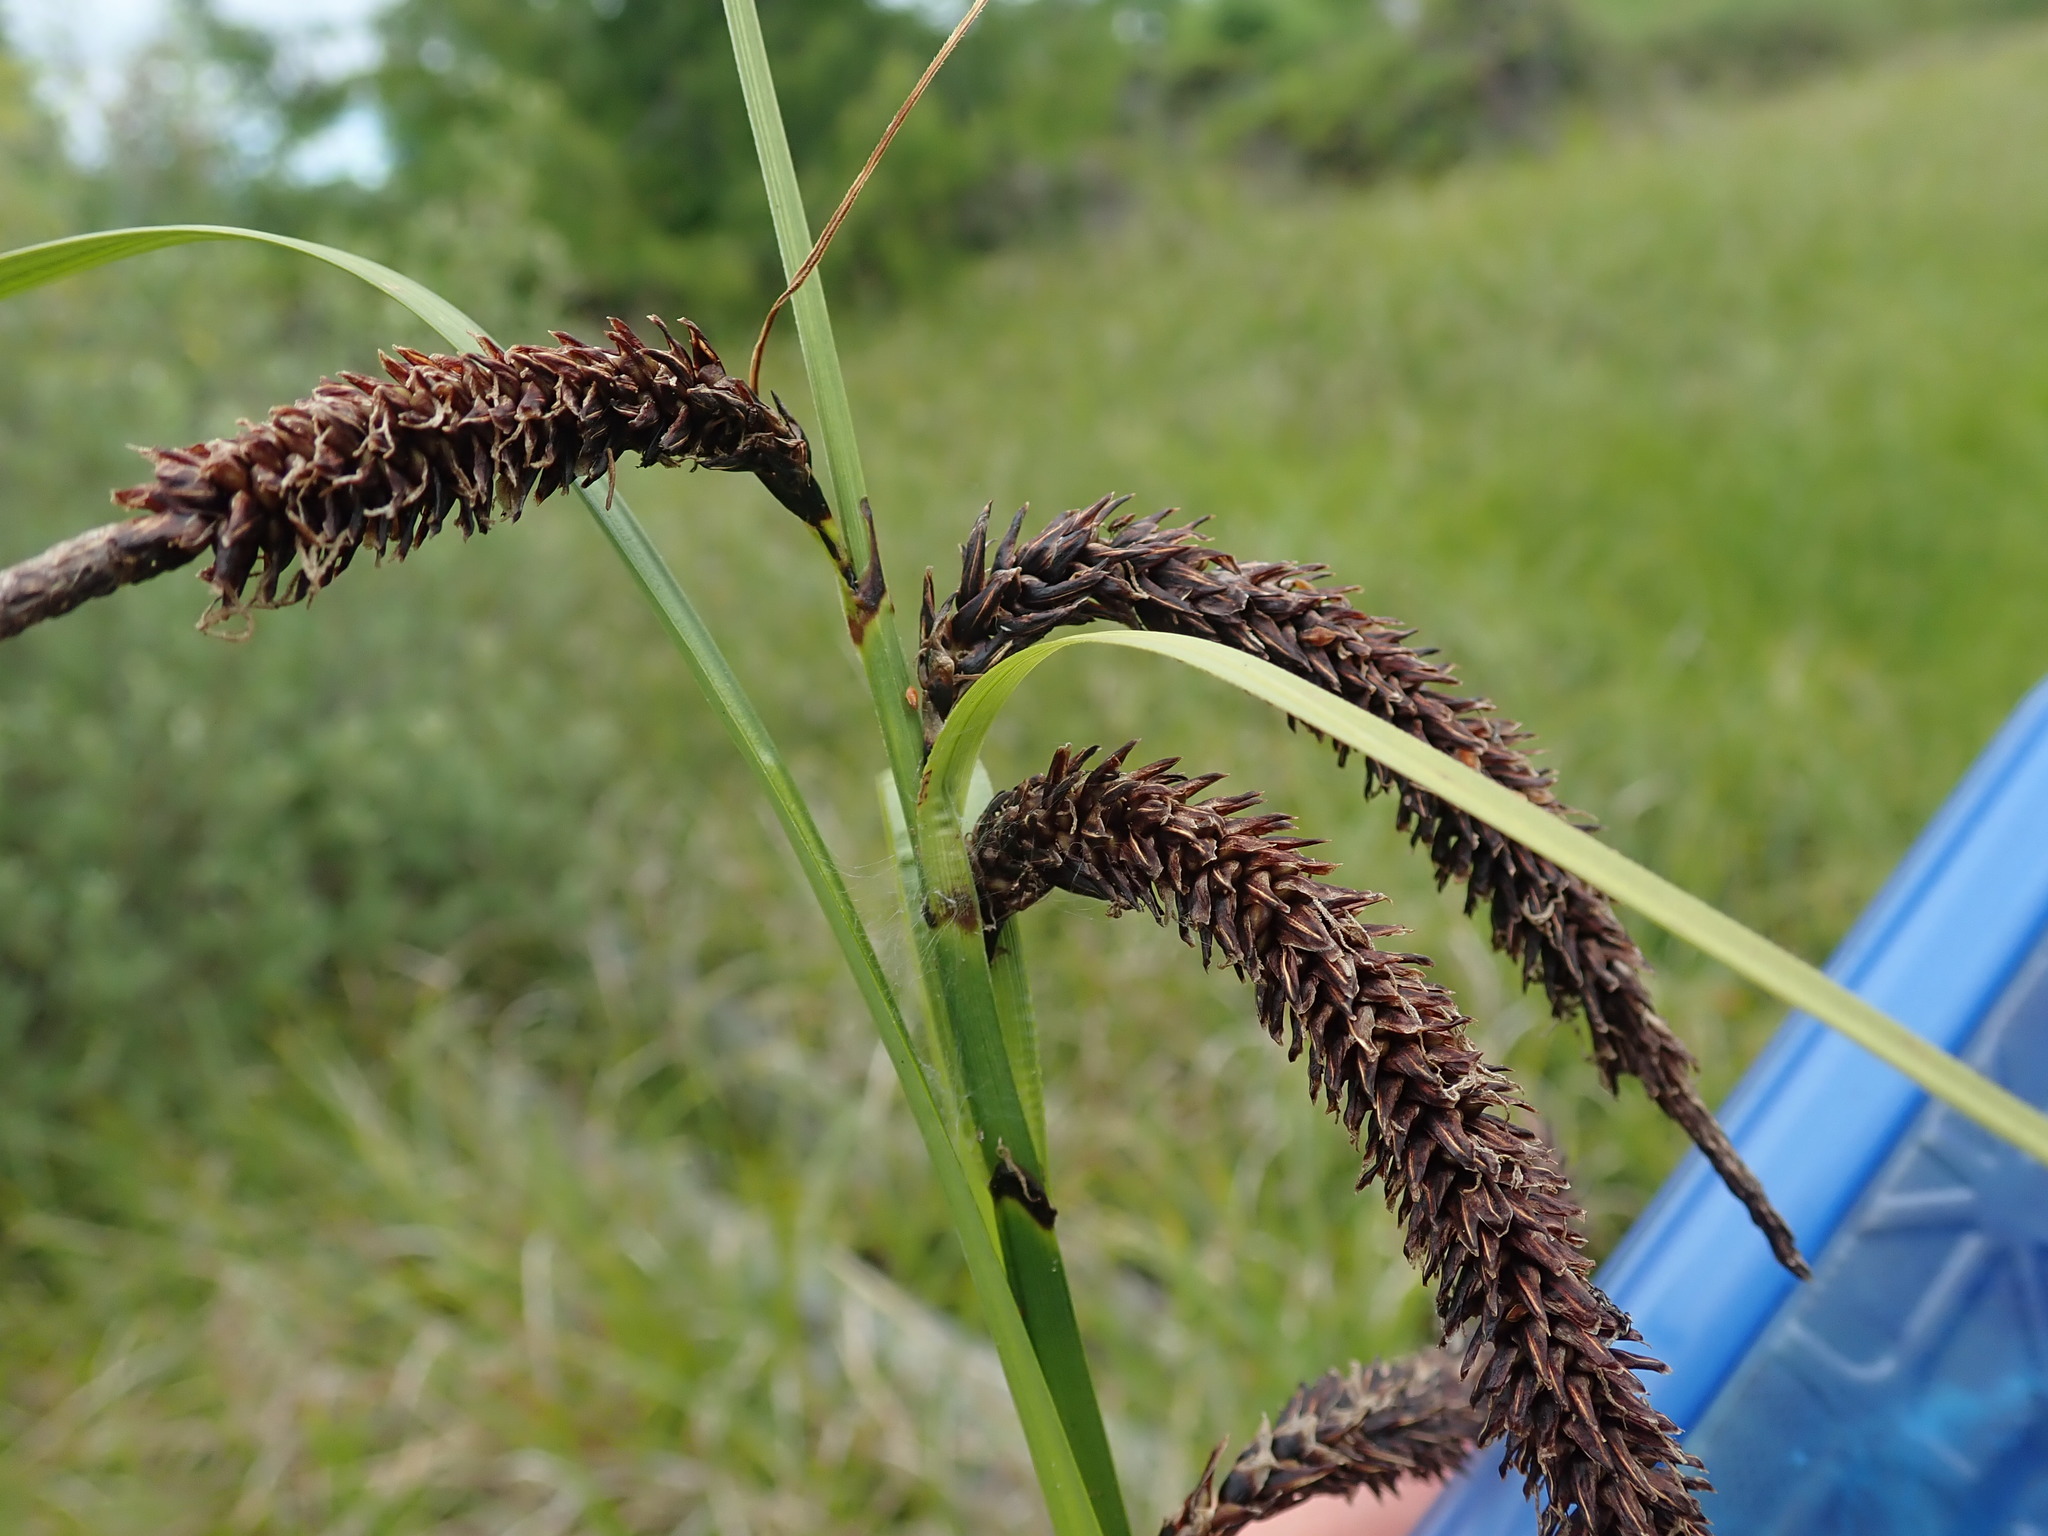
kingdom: Plantae
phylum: Tracheophyta
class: Liliopsida
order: Poales
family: Cyperaceae
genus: Carex
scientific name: Carex aquatilis
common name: Water sedge
